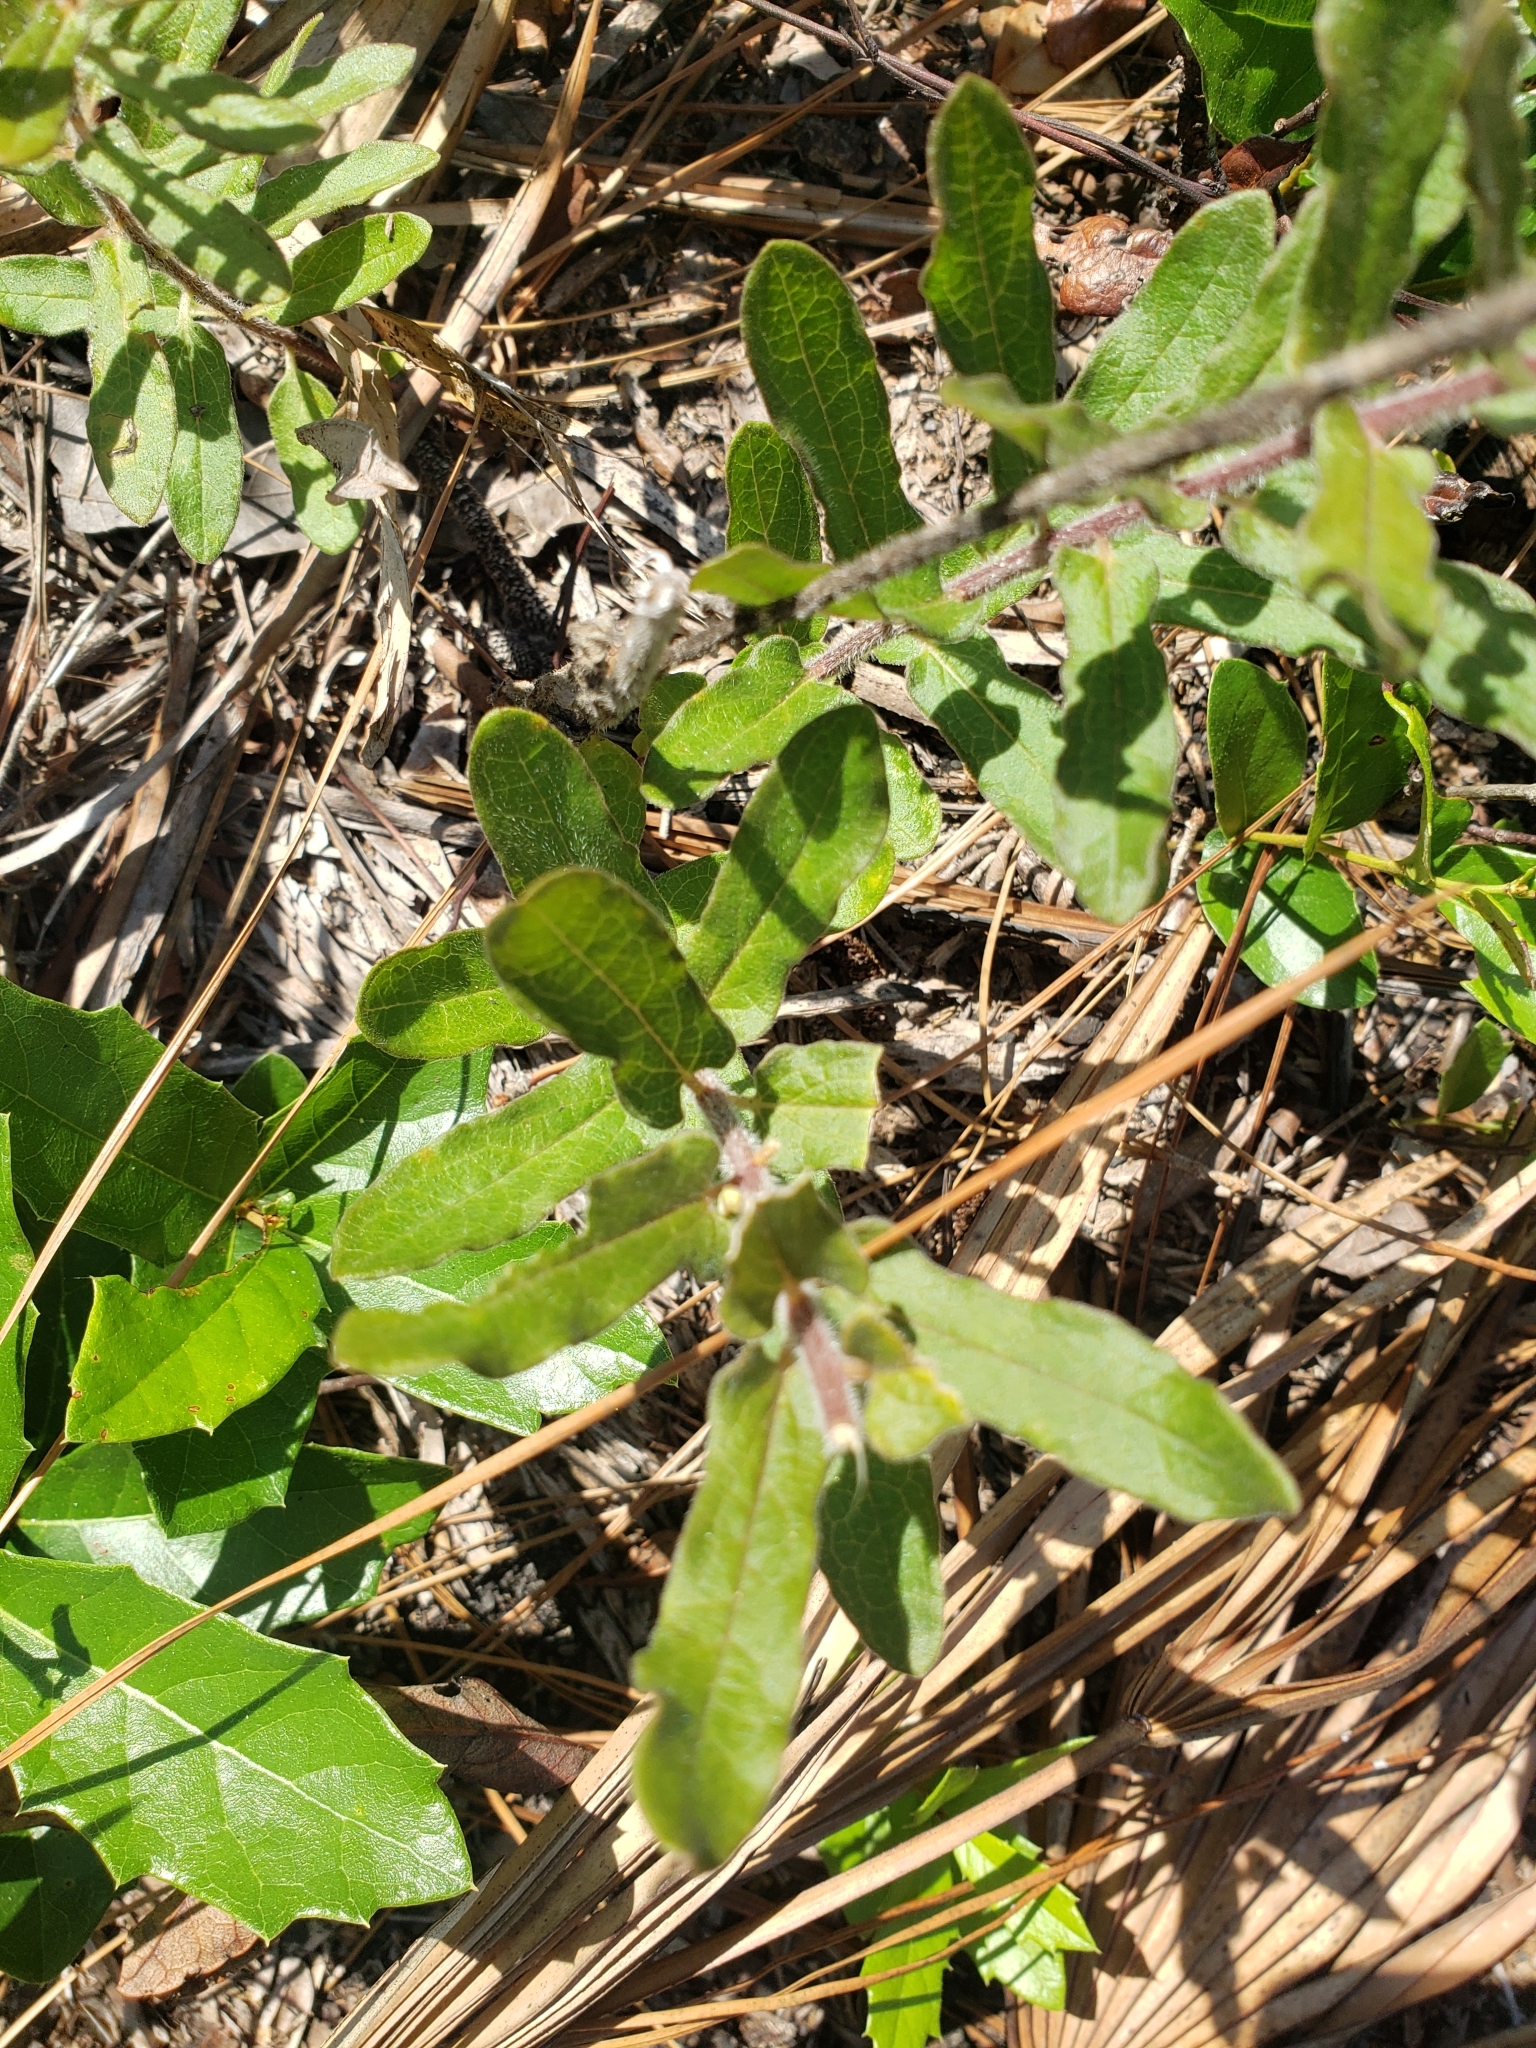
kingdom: Plantae
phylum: Tracheophyta
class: Magnoliopsida
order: Gentianales
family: Apocynaceae
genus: Asclepias
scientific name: Asclepias tuberosa
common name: Butterfly milkweed
